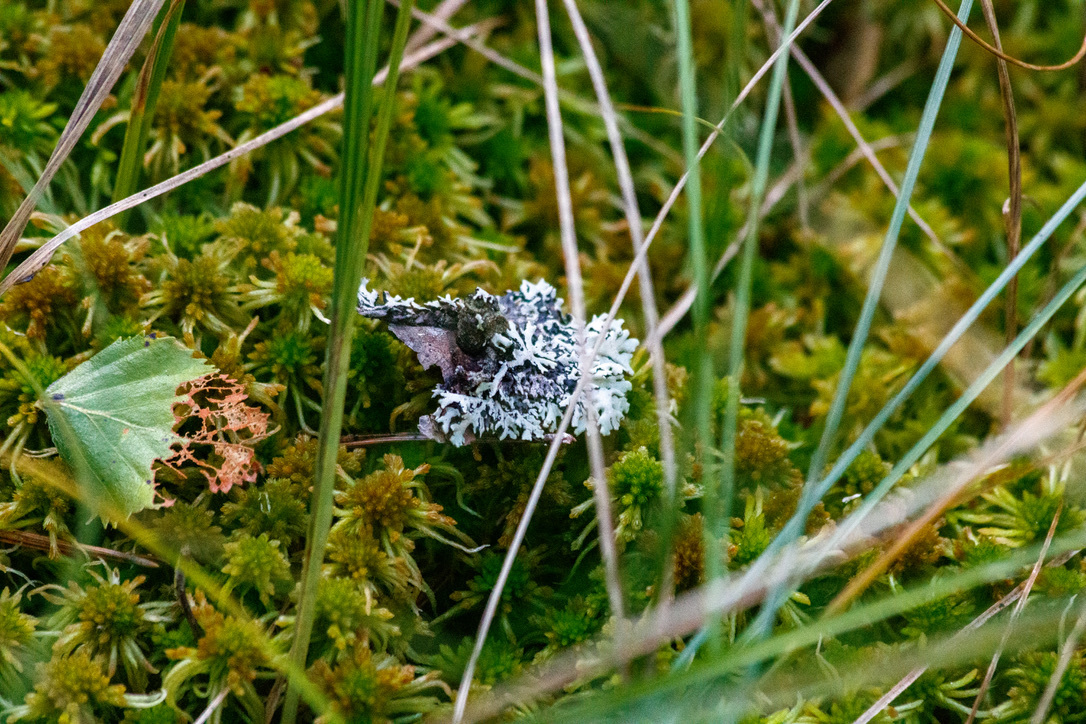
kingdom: Fungi
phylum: Ascomycota
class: Lecanoromycetes
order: Lecanorales
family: Parmeliaceae
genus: Hypogymnia
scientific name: Hypogymnia physodes
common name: Dark crottle
